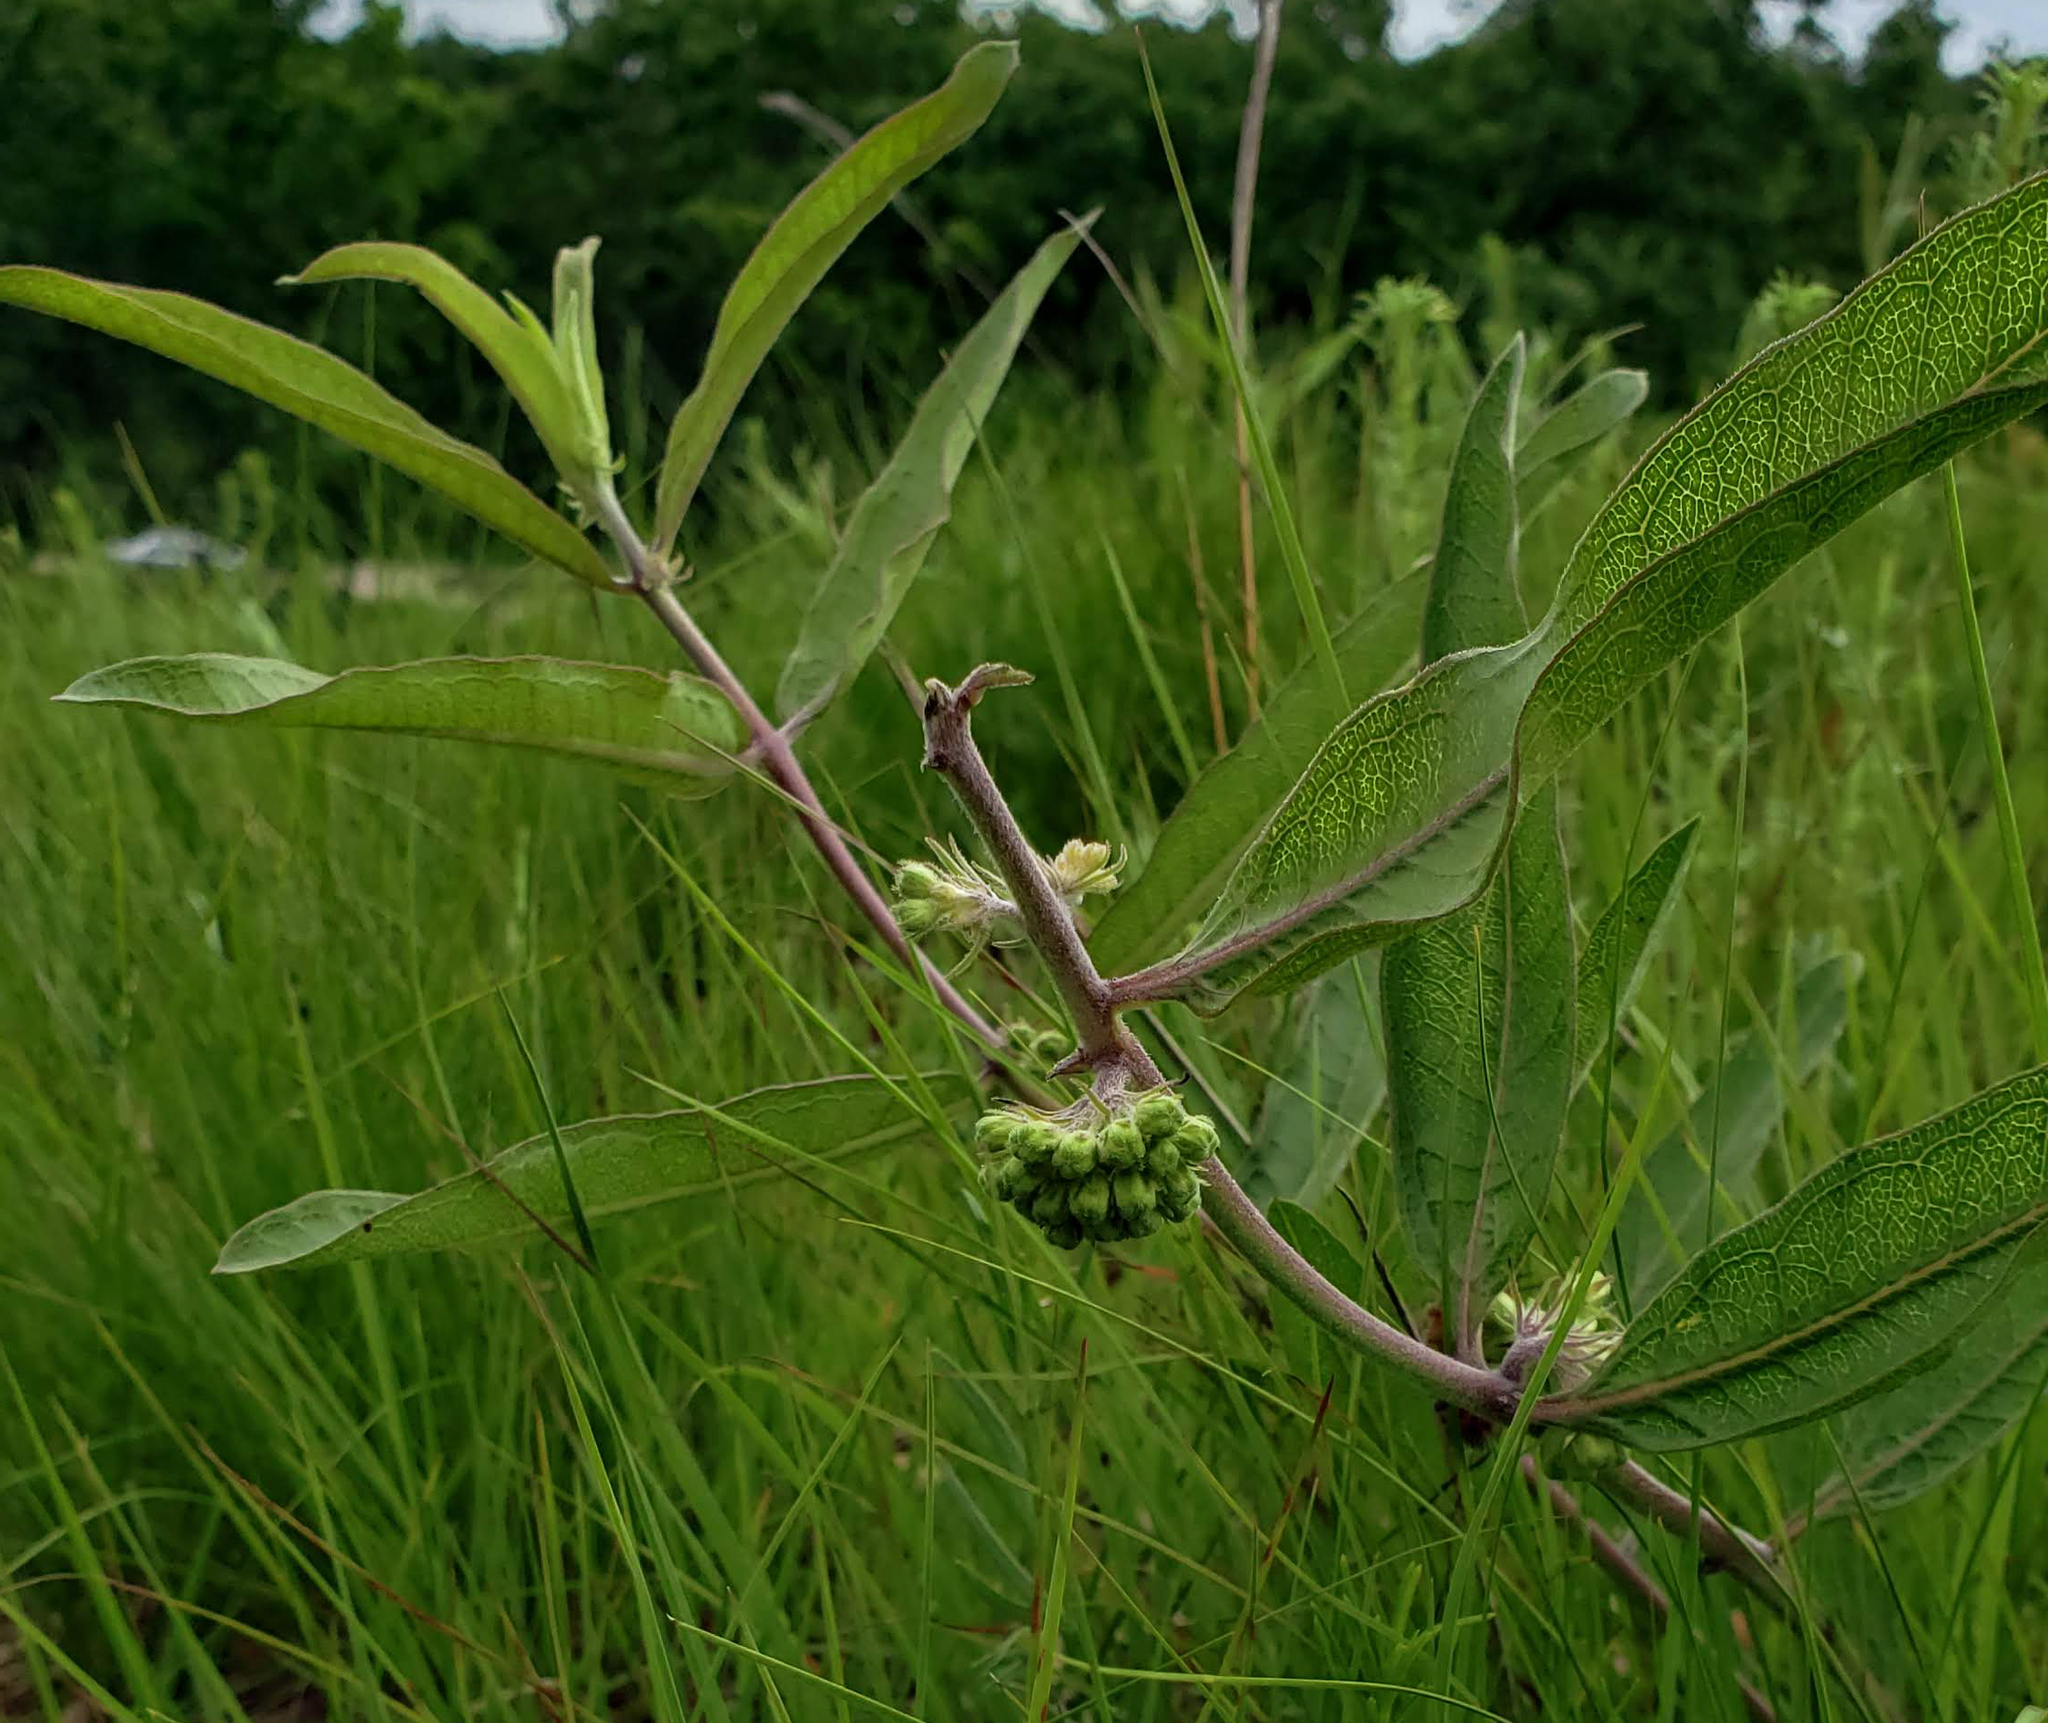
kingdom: Plantae
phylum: Tracheophyta
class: Magnoliopsida
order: Gentianales
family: Apocynaceae
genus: Asclepias
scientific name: Asclepias viridiflora
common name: Green comet milkweed
